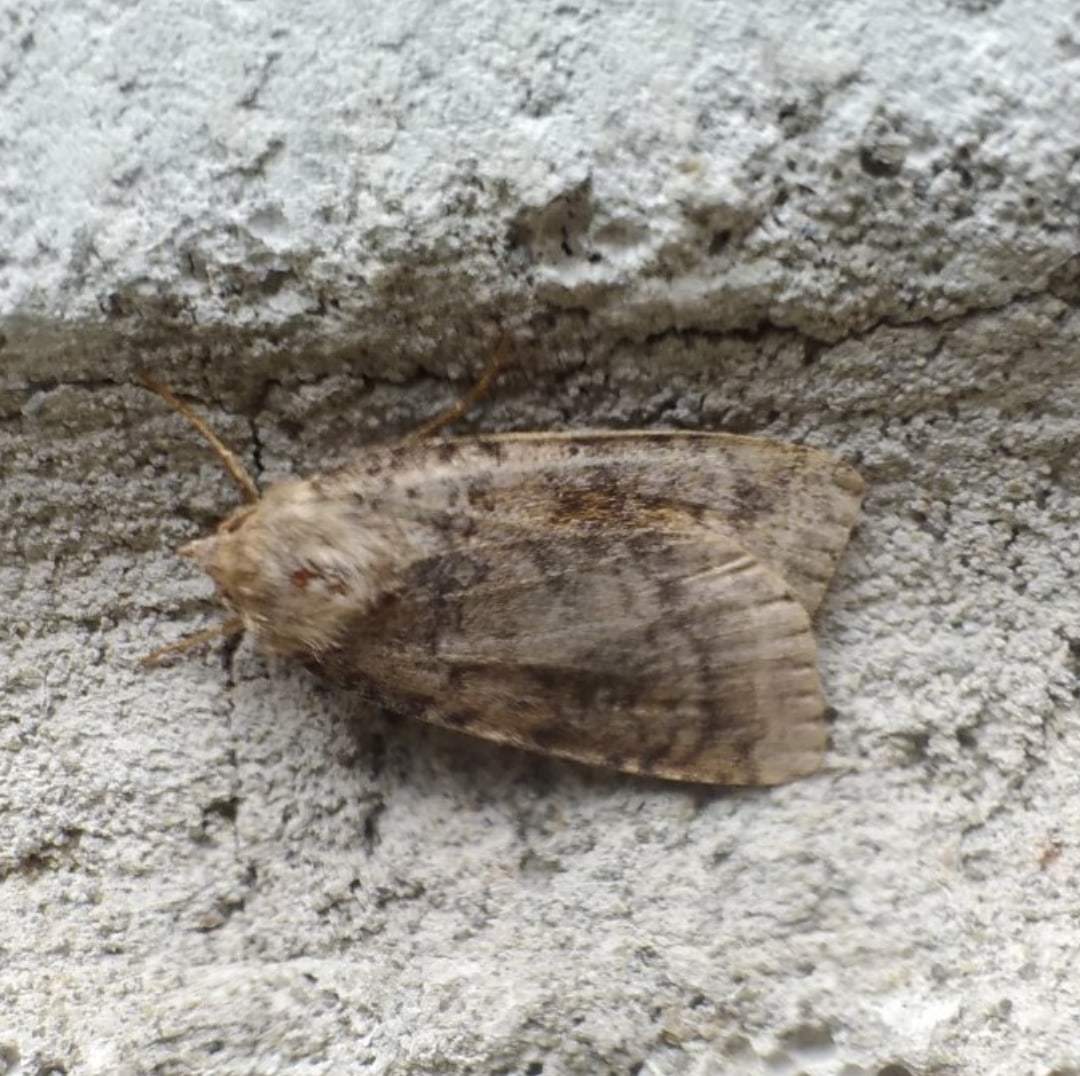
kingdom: Animalia
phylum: Arthropoda
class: Insecta
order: Lepidoptera
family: Noctuidae
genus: Diarsia
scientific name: Diarsia dahlii
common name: Barred chestnut
